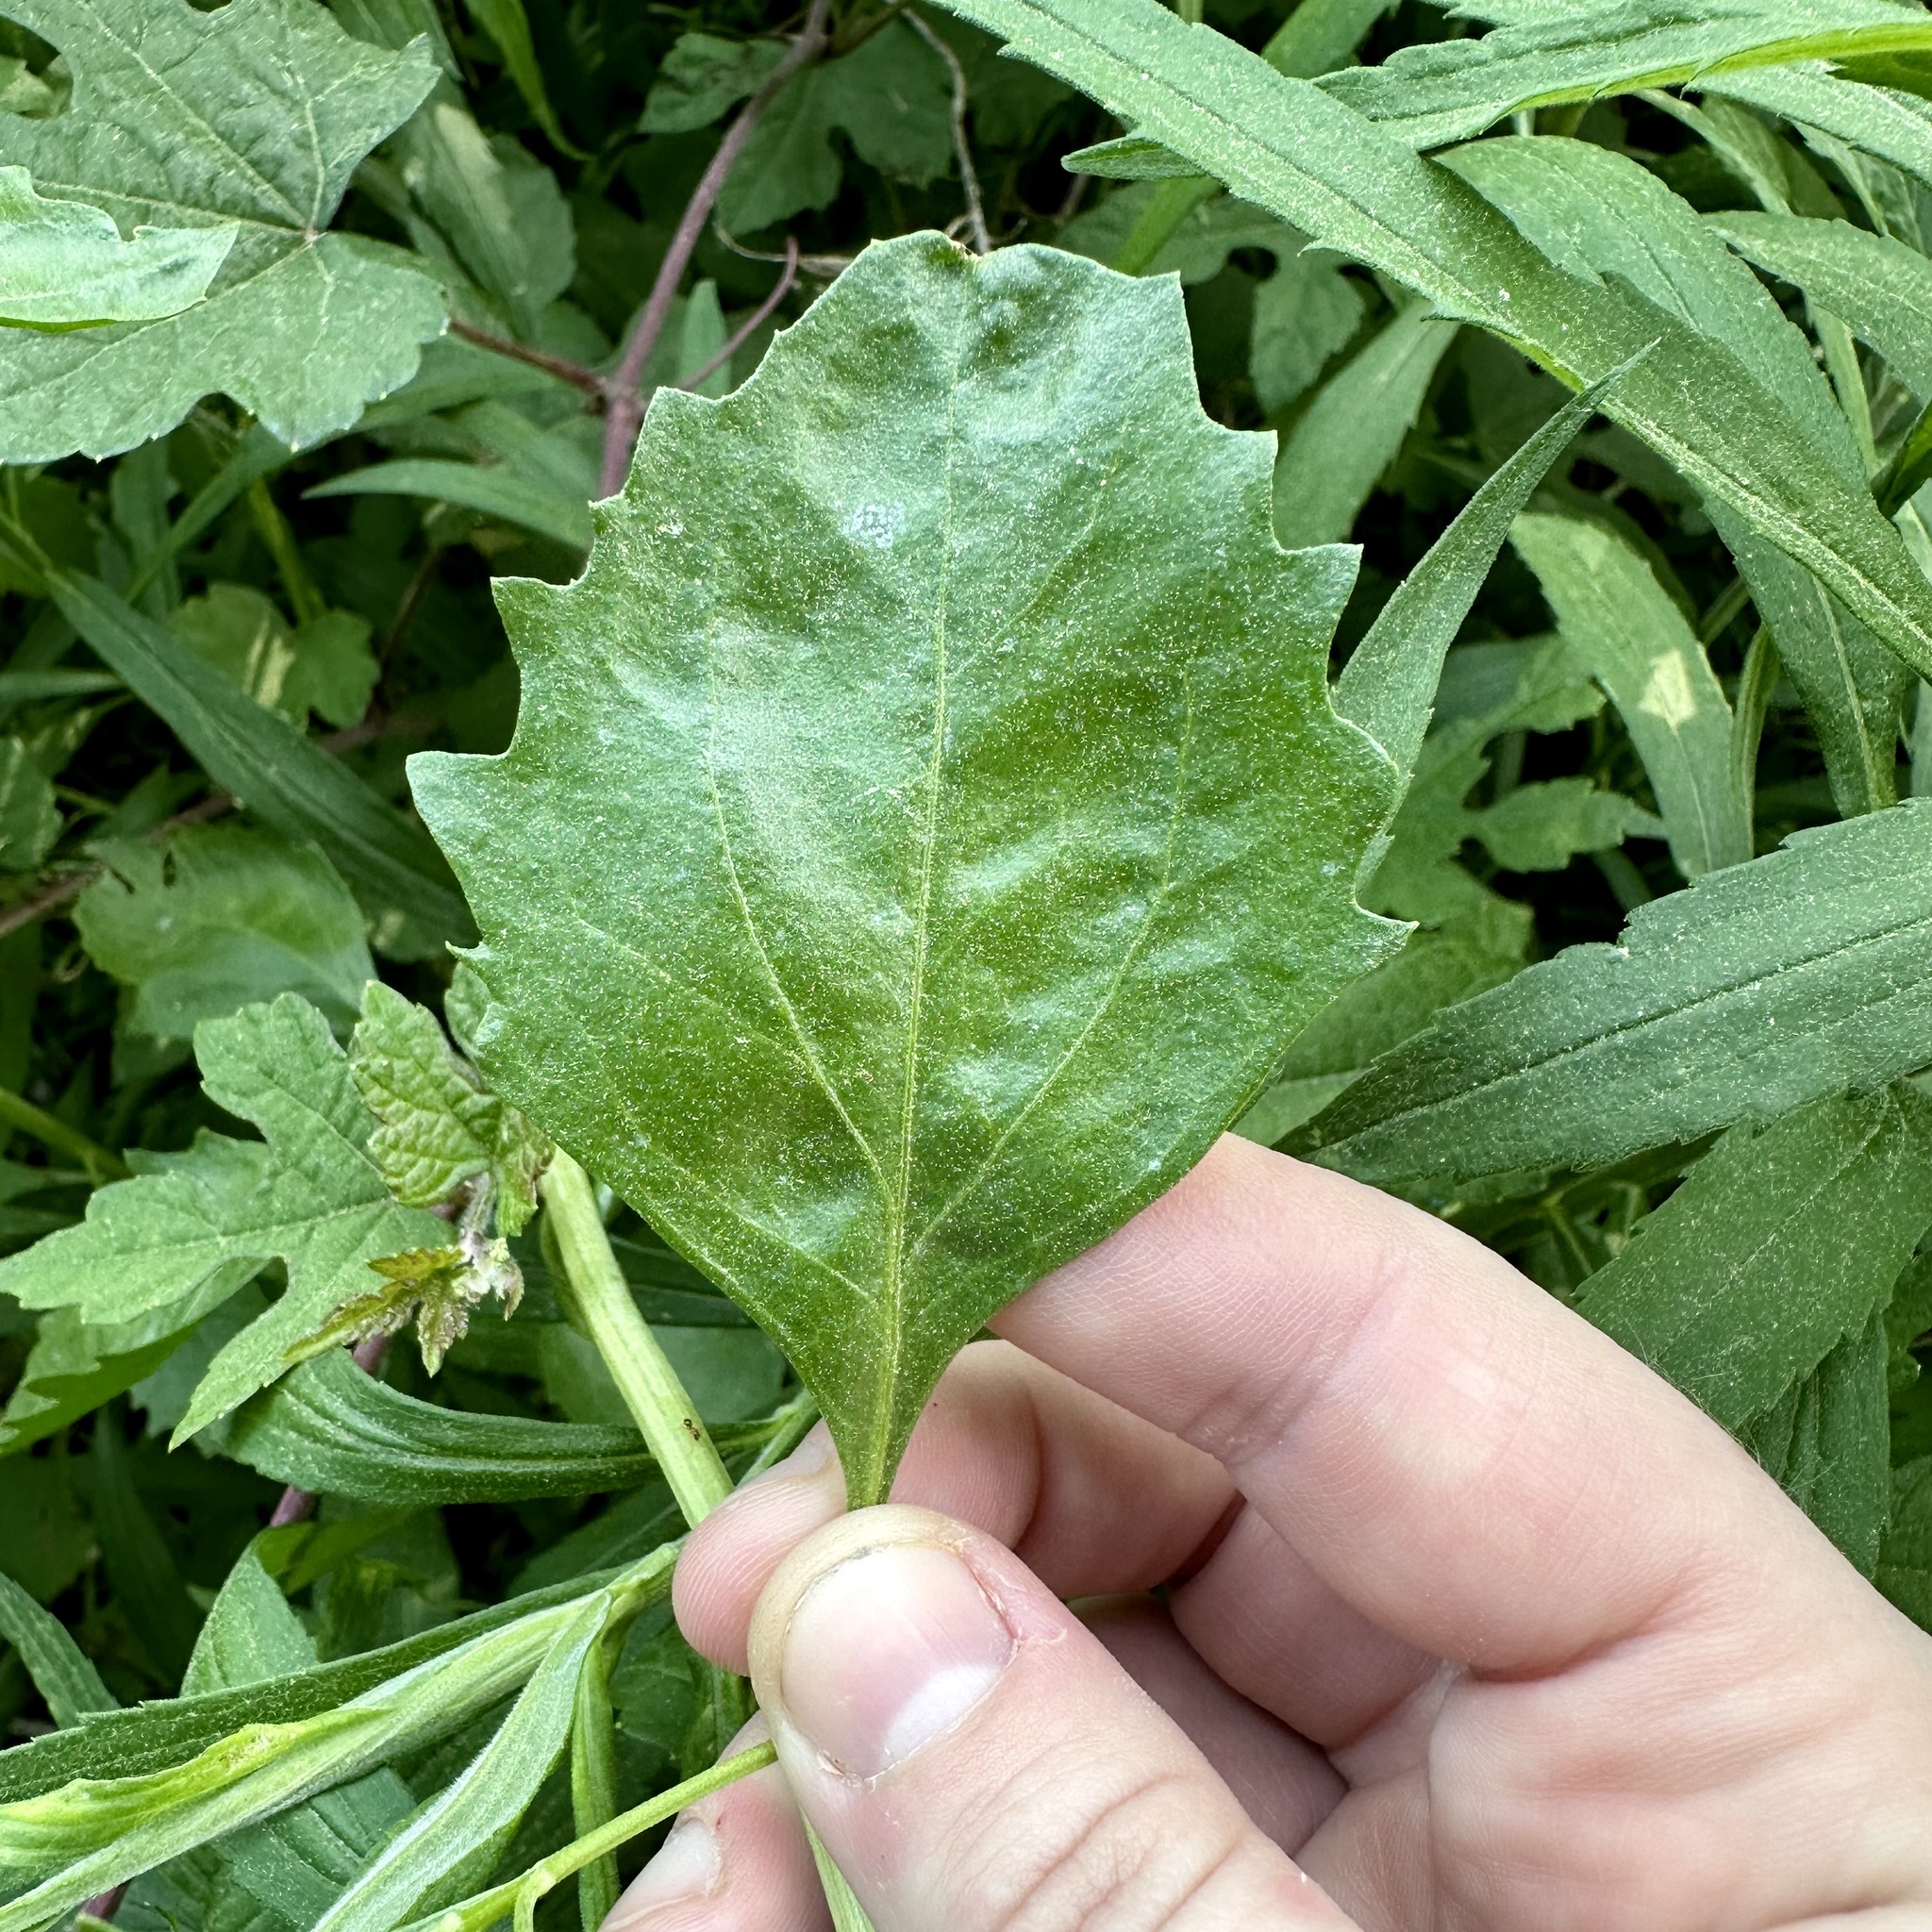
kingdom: Plantae
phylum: Tracheophyta
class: Magnoliopsida
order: Asterales
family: Asteraceae
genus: Baccharis
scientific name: Baccharis halimifolia
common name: Eastern baccharis
